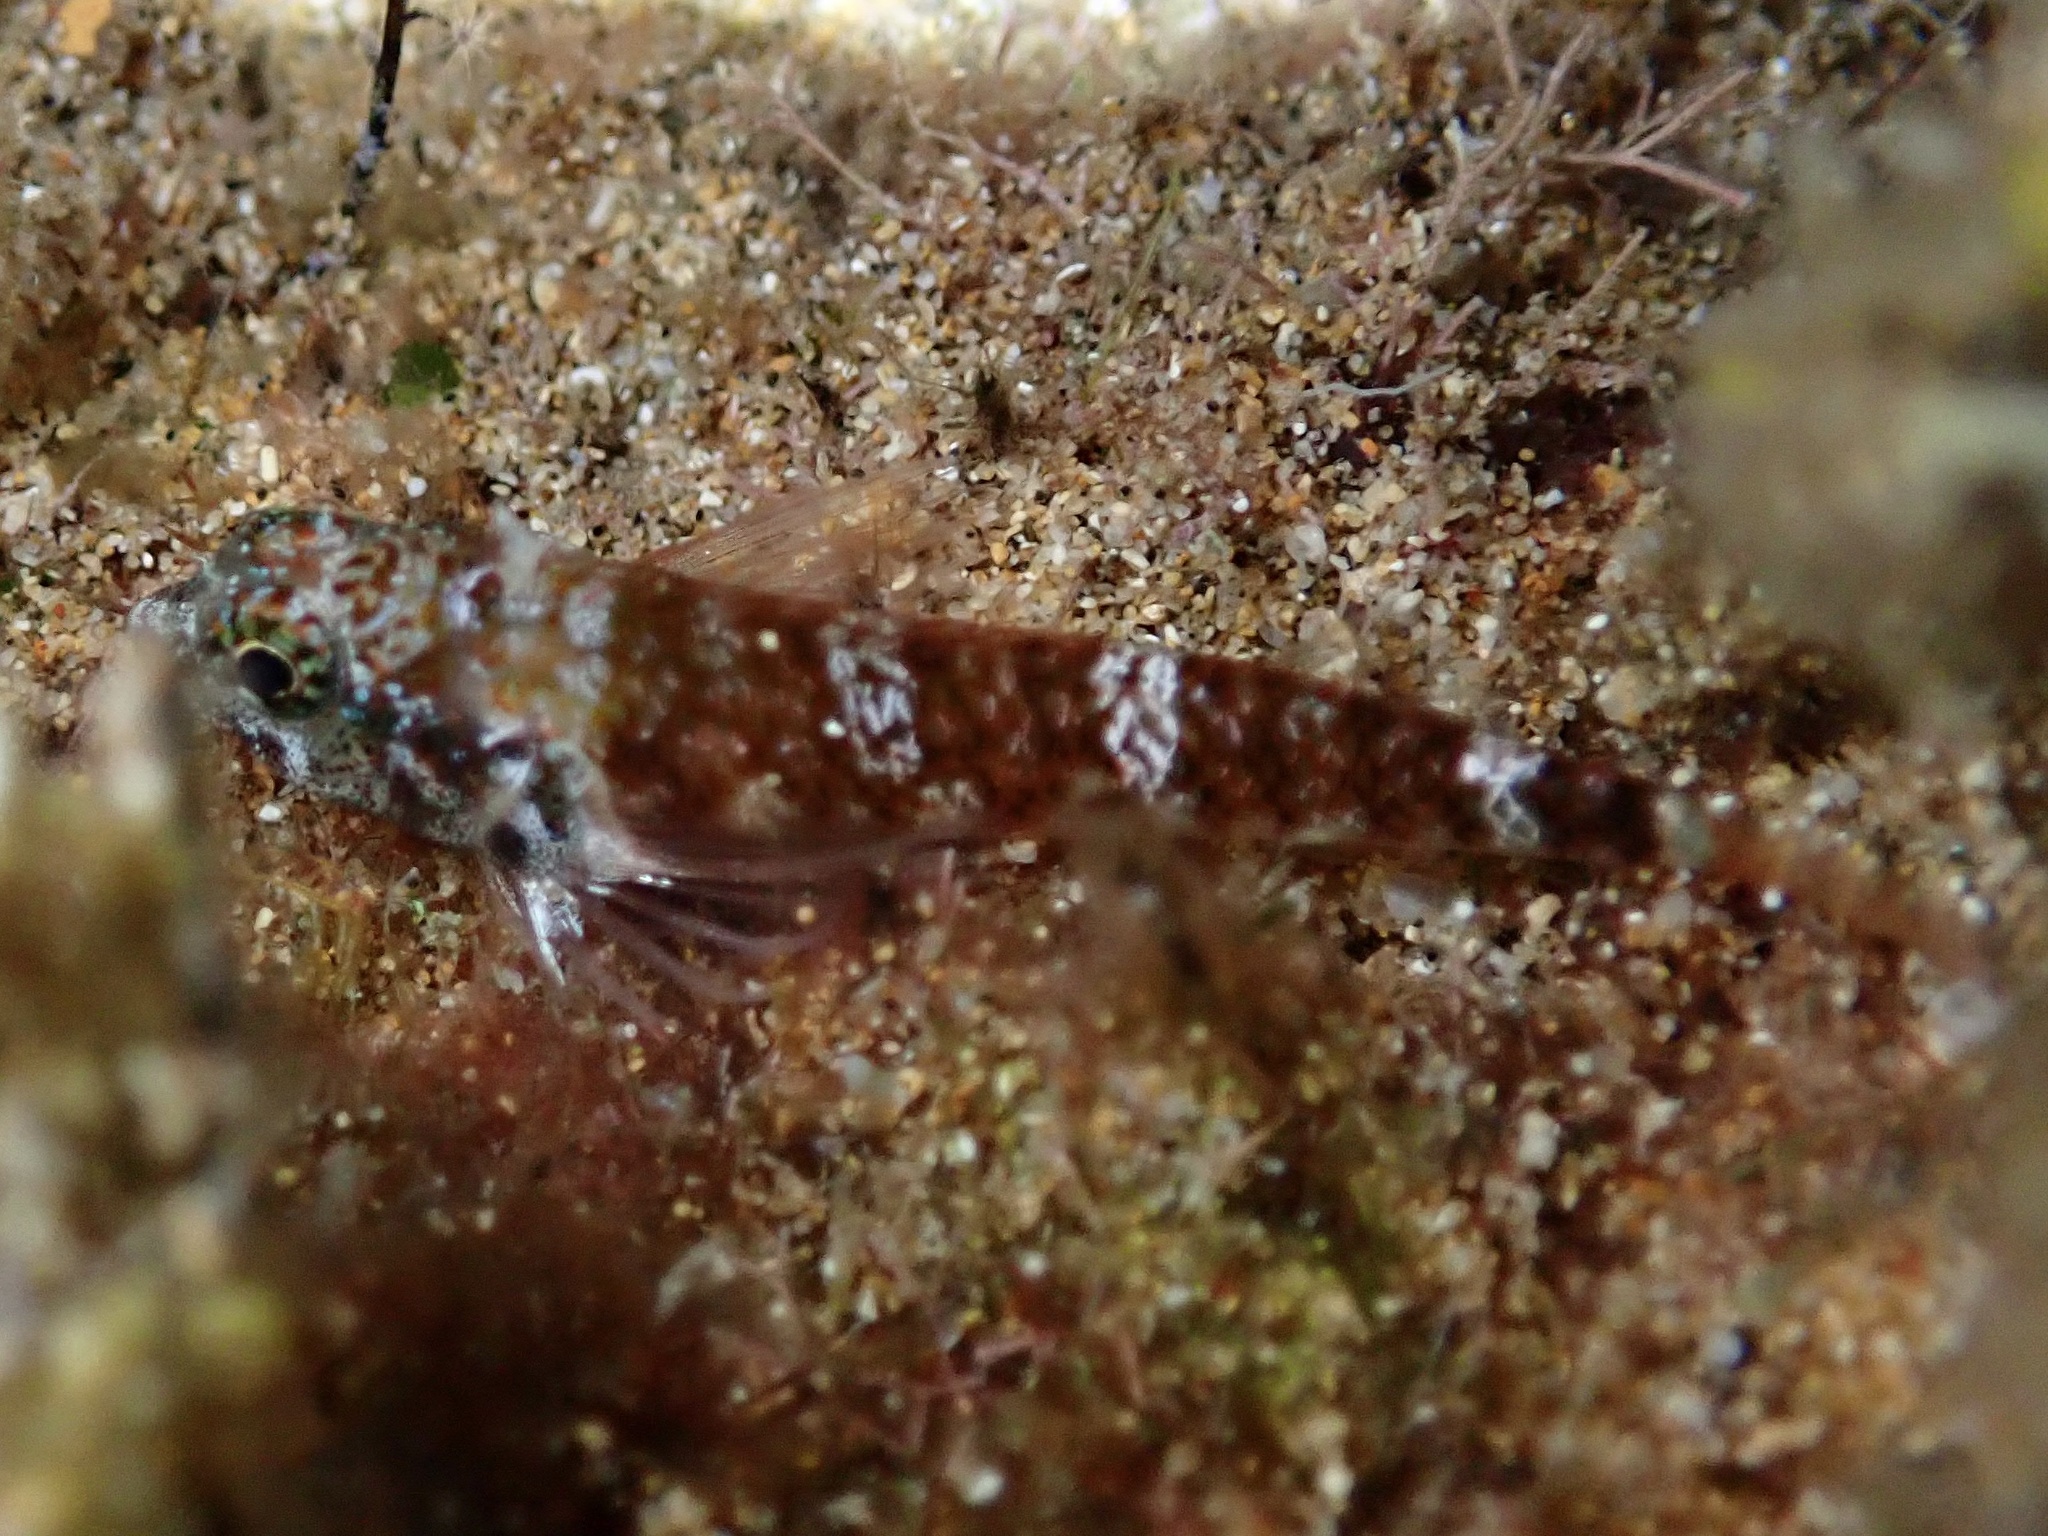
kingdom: Animalia
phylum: Chordata
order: Perciformes
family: Tripterygiidae
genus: Enneapterygius
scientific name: Enneapterygius atriceps
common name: Hawaiian blackhead triplefin
